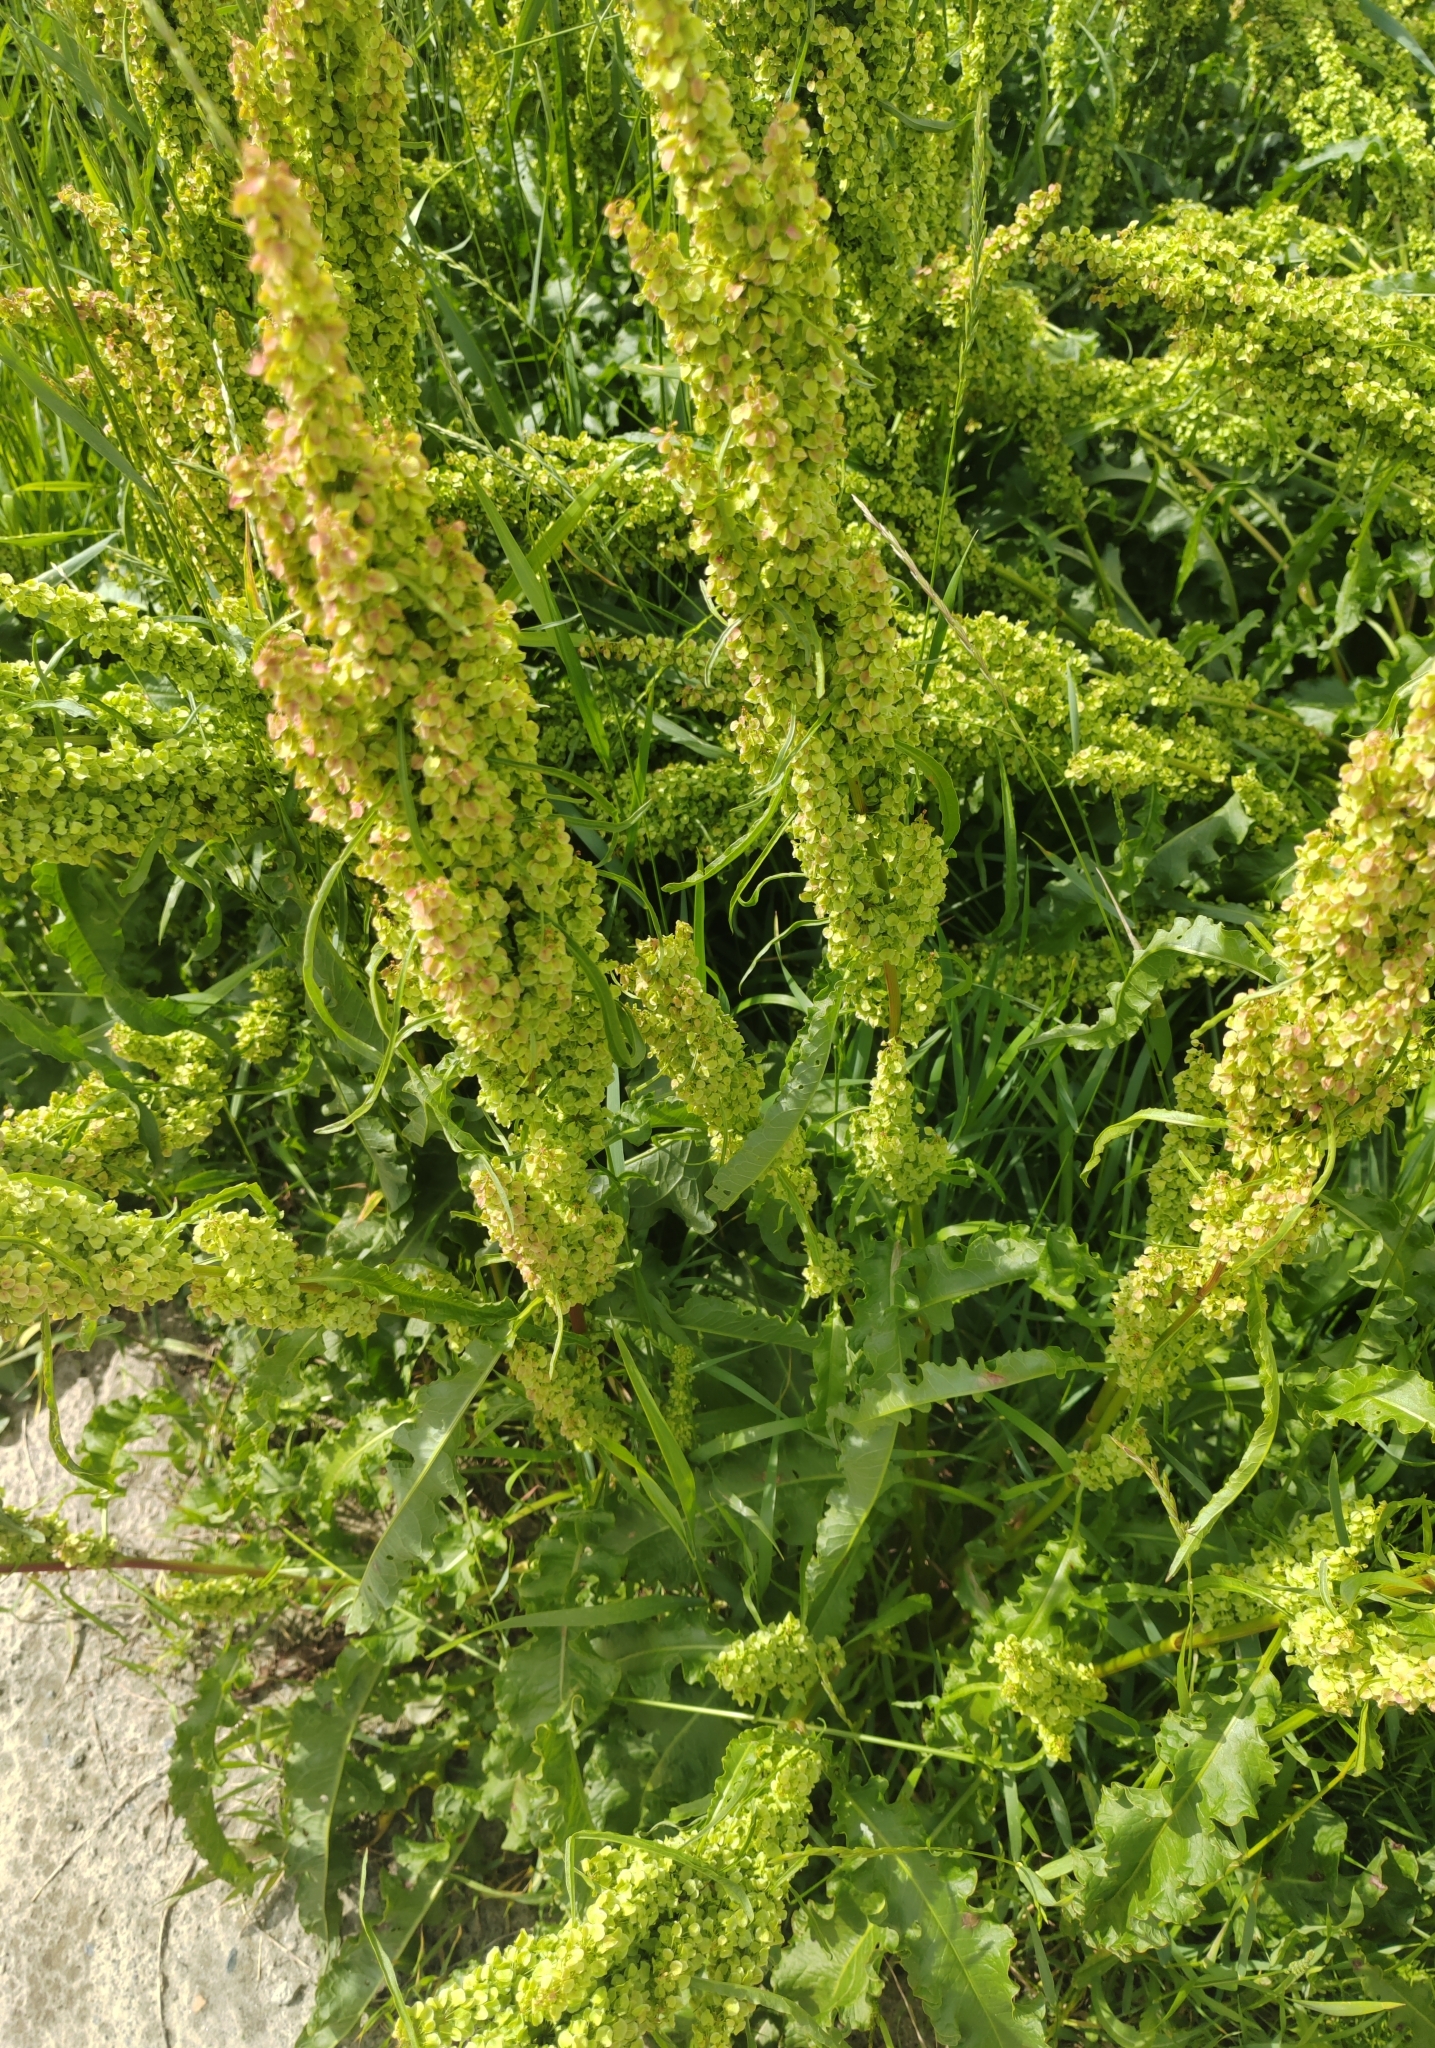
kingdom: Plantae
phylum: Tracheophyta
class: Magnoliopsida
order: Caryophyllales
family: Polygonaceae
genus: Rumex
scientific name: Rumex pseudonatronatus
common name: Field dock
